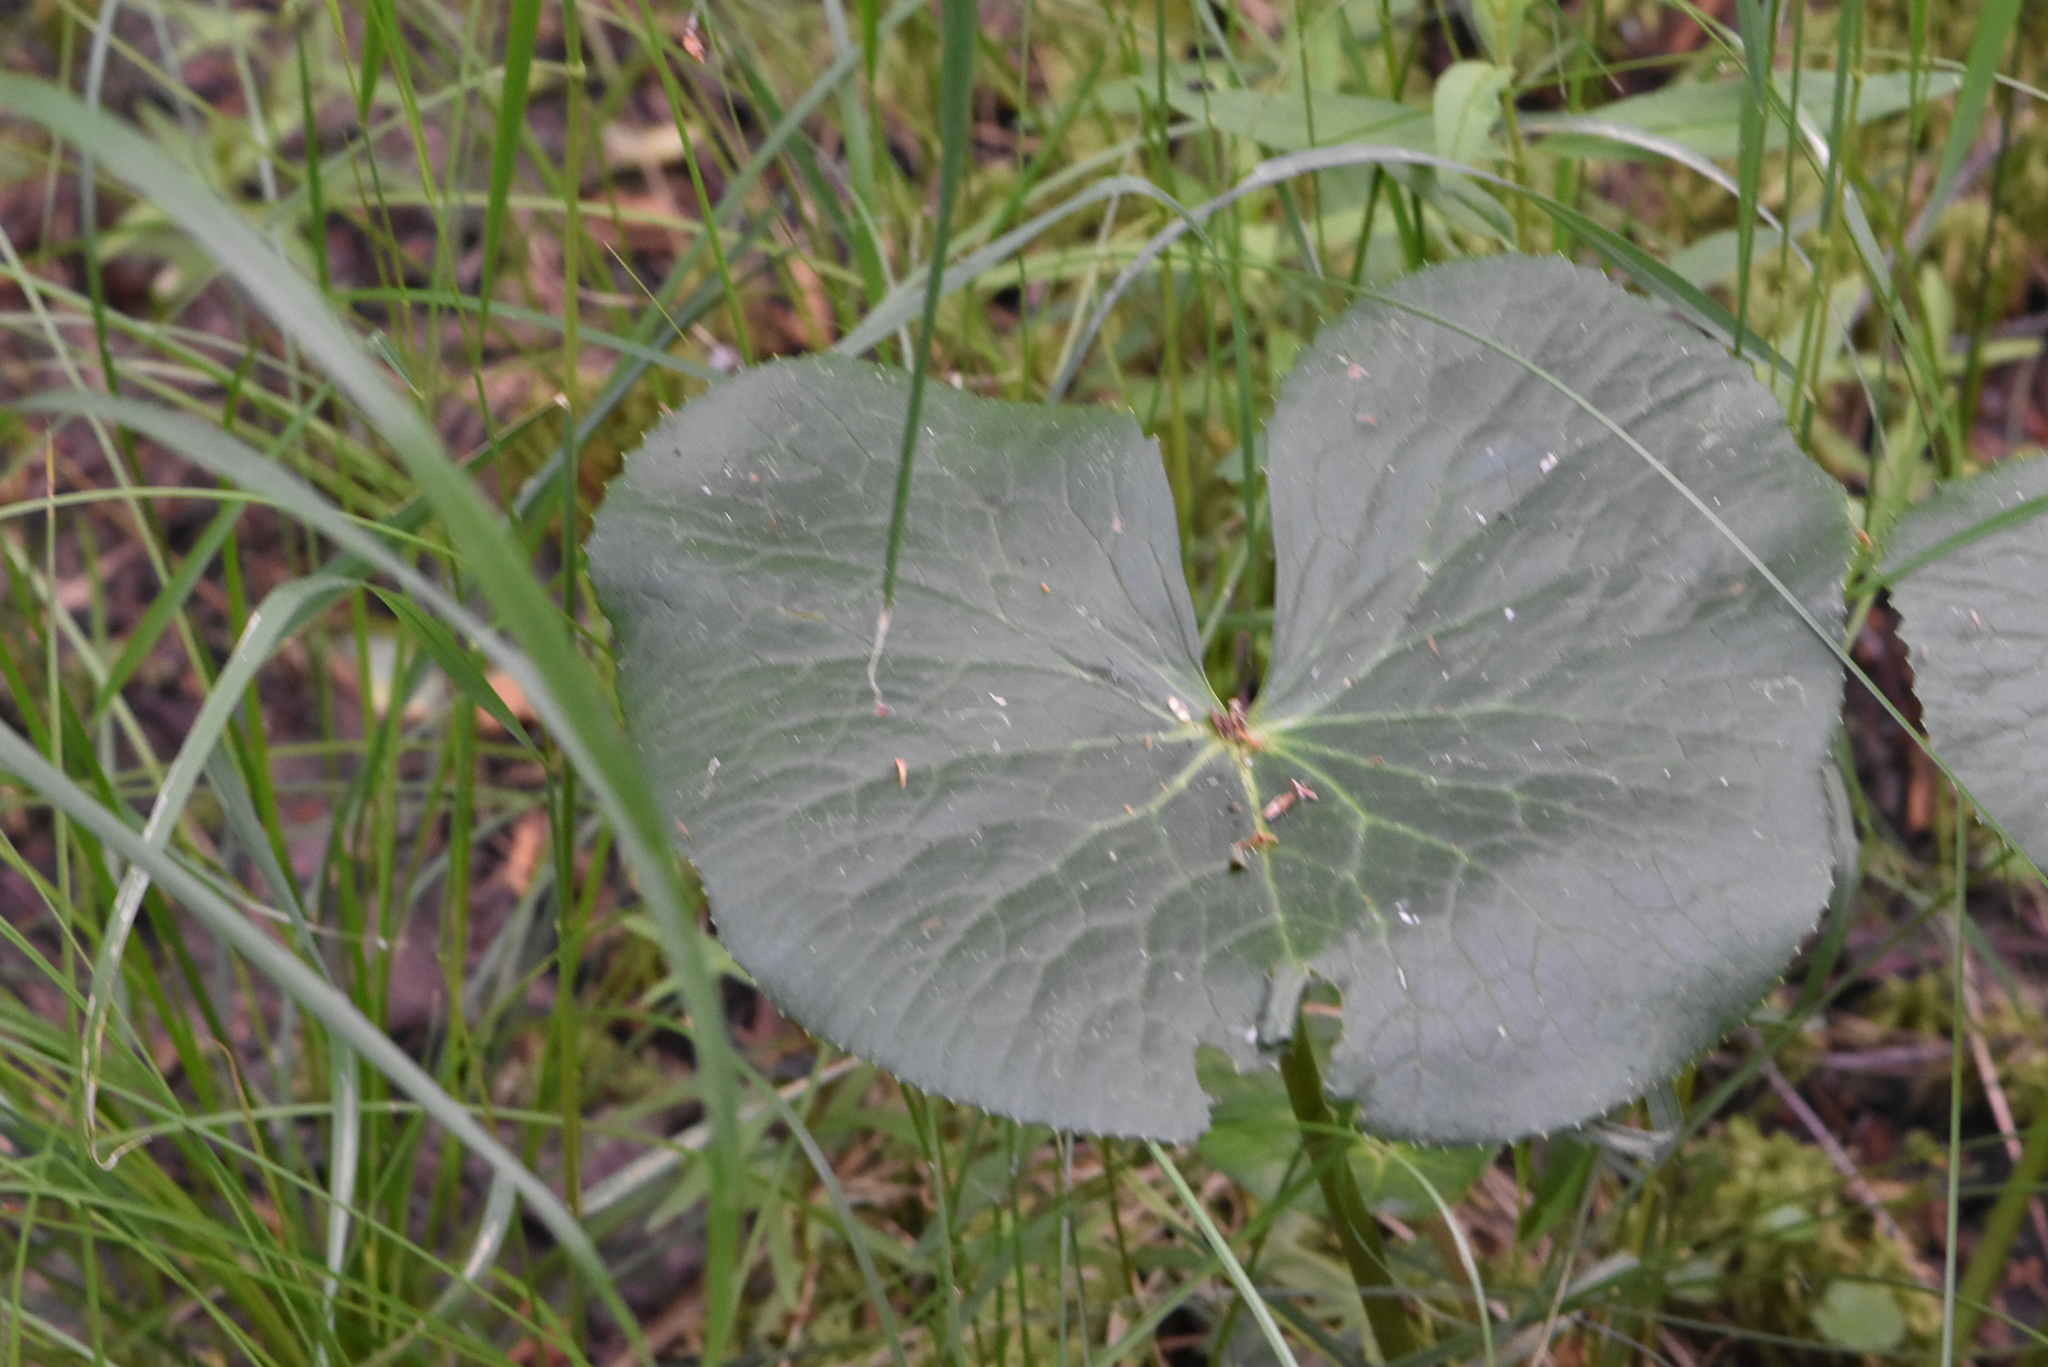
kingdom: Plantae
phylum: Tracheophyta
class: Magnoliopsida
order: Ranunculales
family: Ranunculaceae
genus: Caltha
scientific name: Caltha palustris
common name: Marsh marigold
